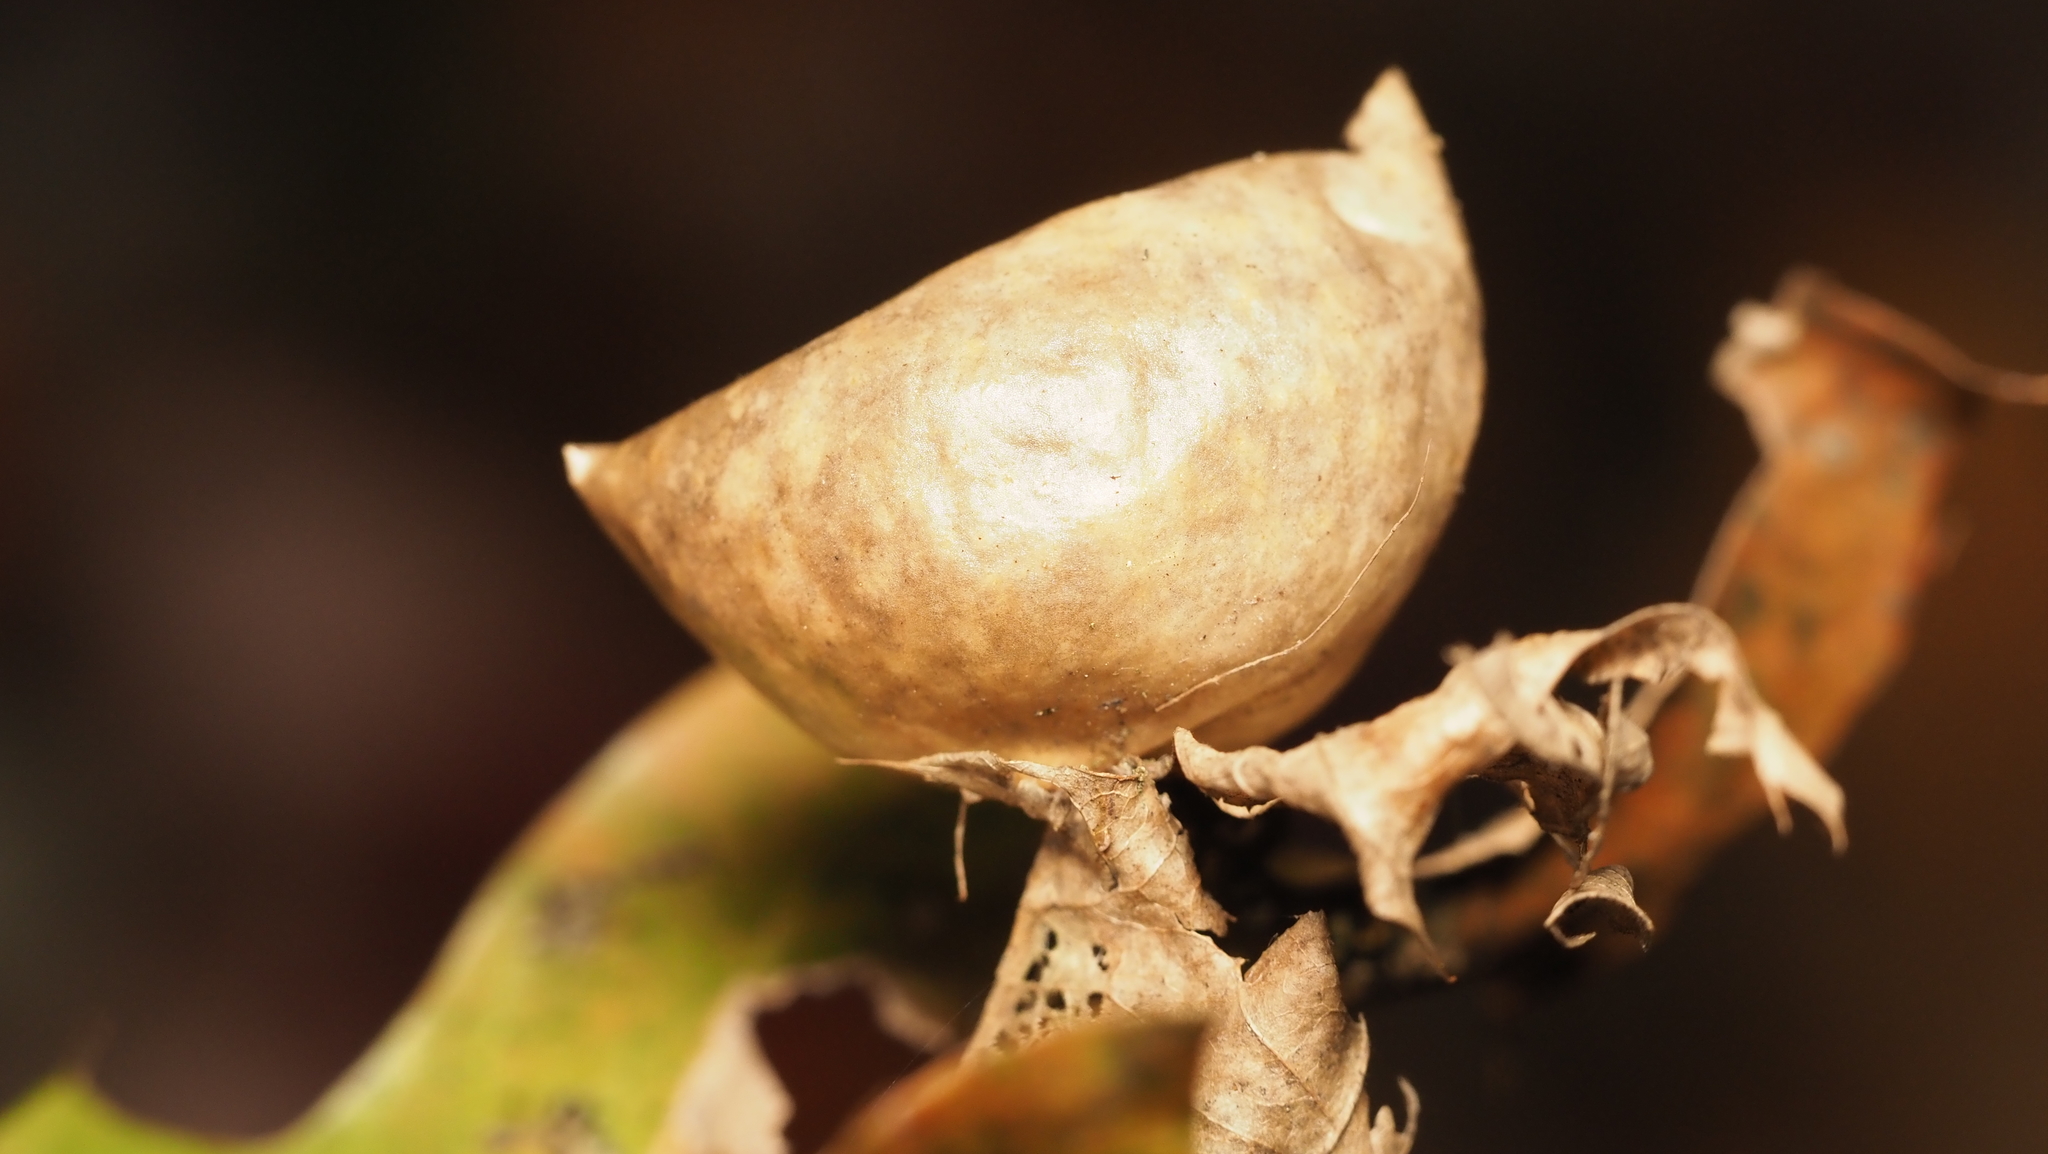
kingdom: Animalia
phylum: Arthropoda
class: Insecta
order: Hymenoptera
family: Cynipidae
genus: Amphibolips
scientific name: Amphibolips
